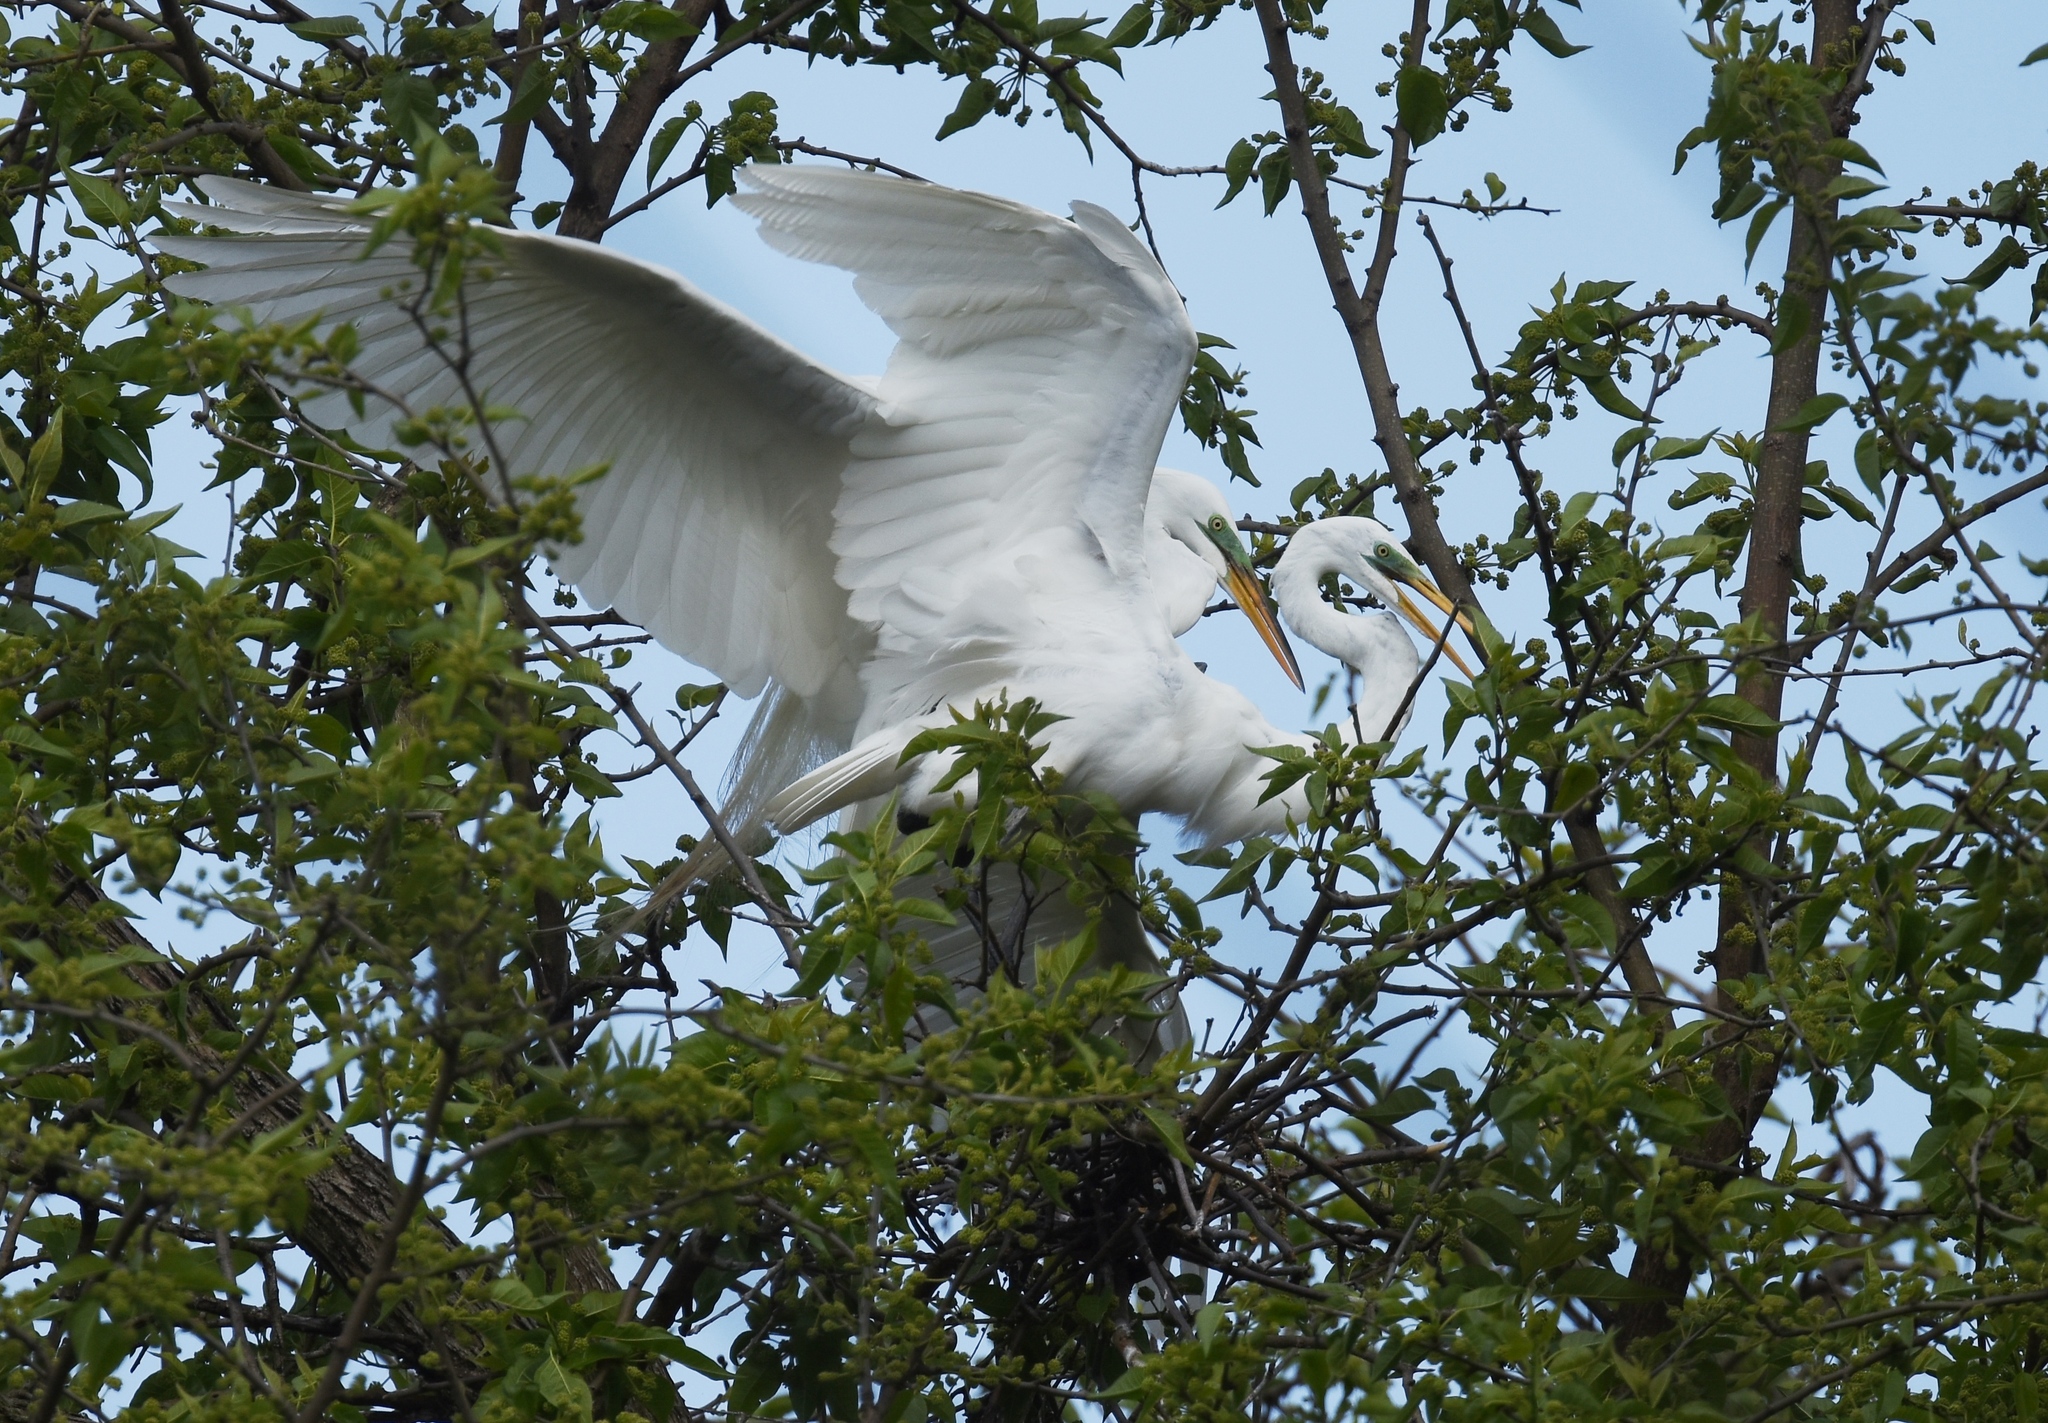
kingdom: Animalia
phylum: Chordata
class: Aves
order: Pelecaniformes
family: Ardeidae
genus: Ardea
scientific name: Ardea alba
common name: Great egret
